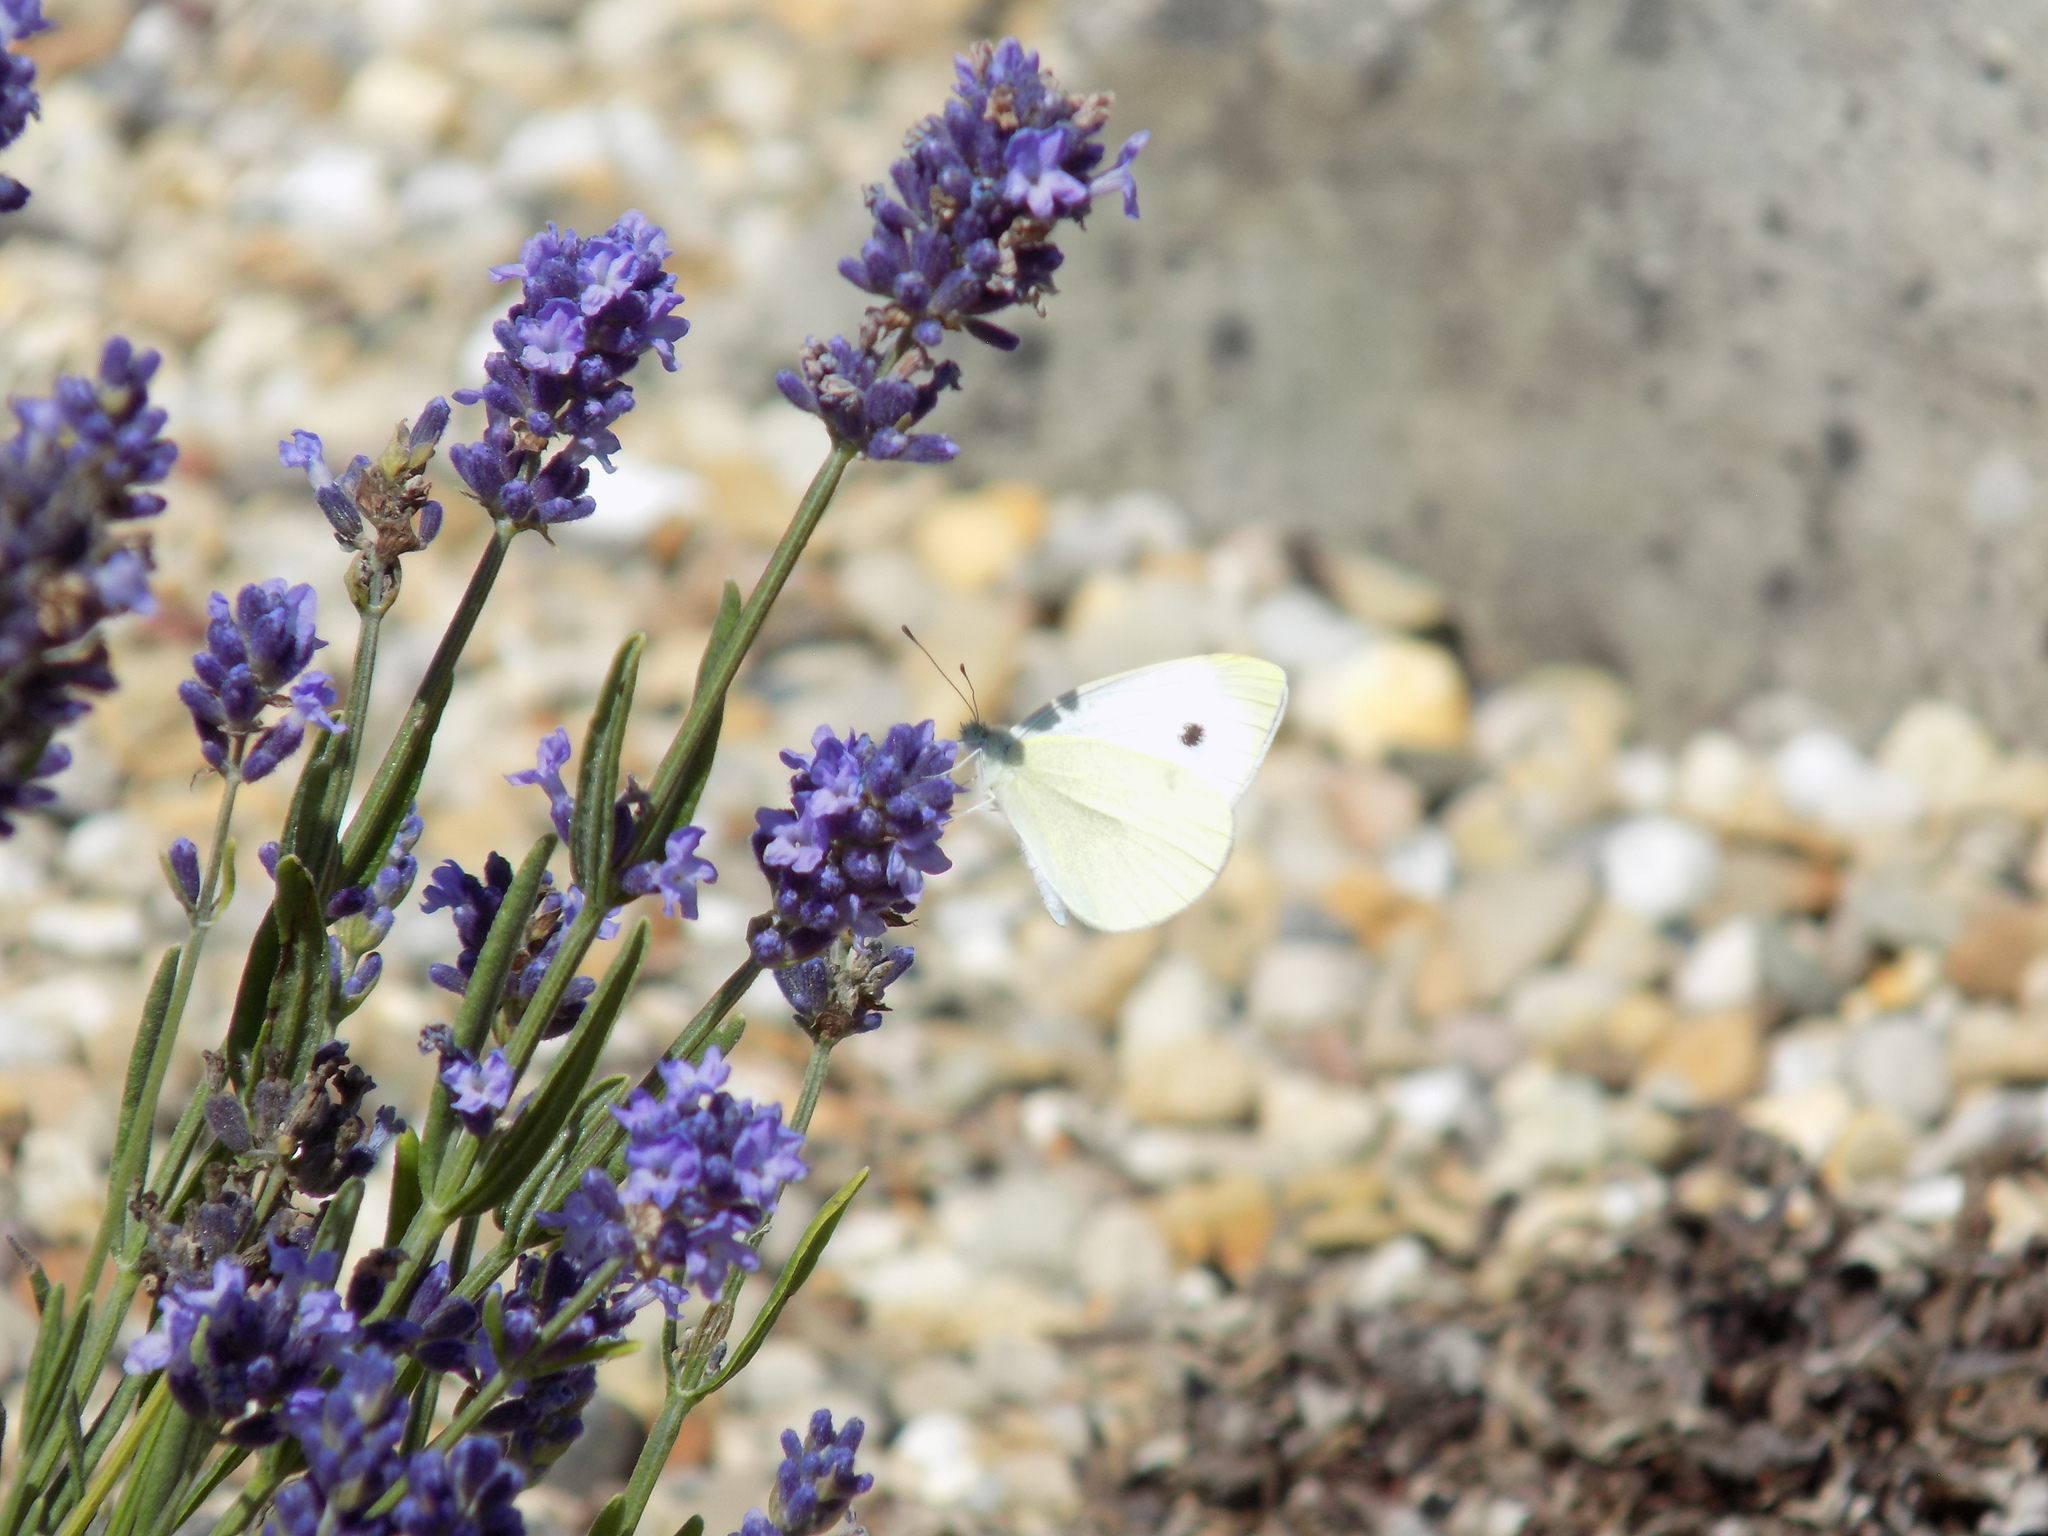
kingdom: Animalia
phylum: Arthropoda
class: Insecta
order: Lepidoptera
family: Pieridae
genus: Pieris
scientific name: Pieris rapae
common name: Small white
